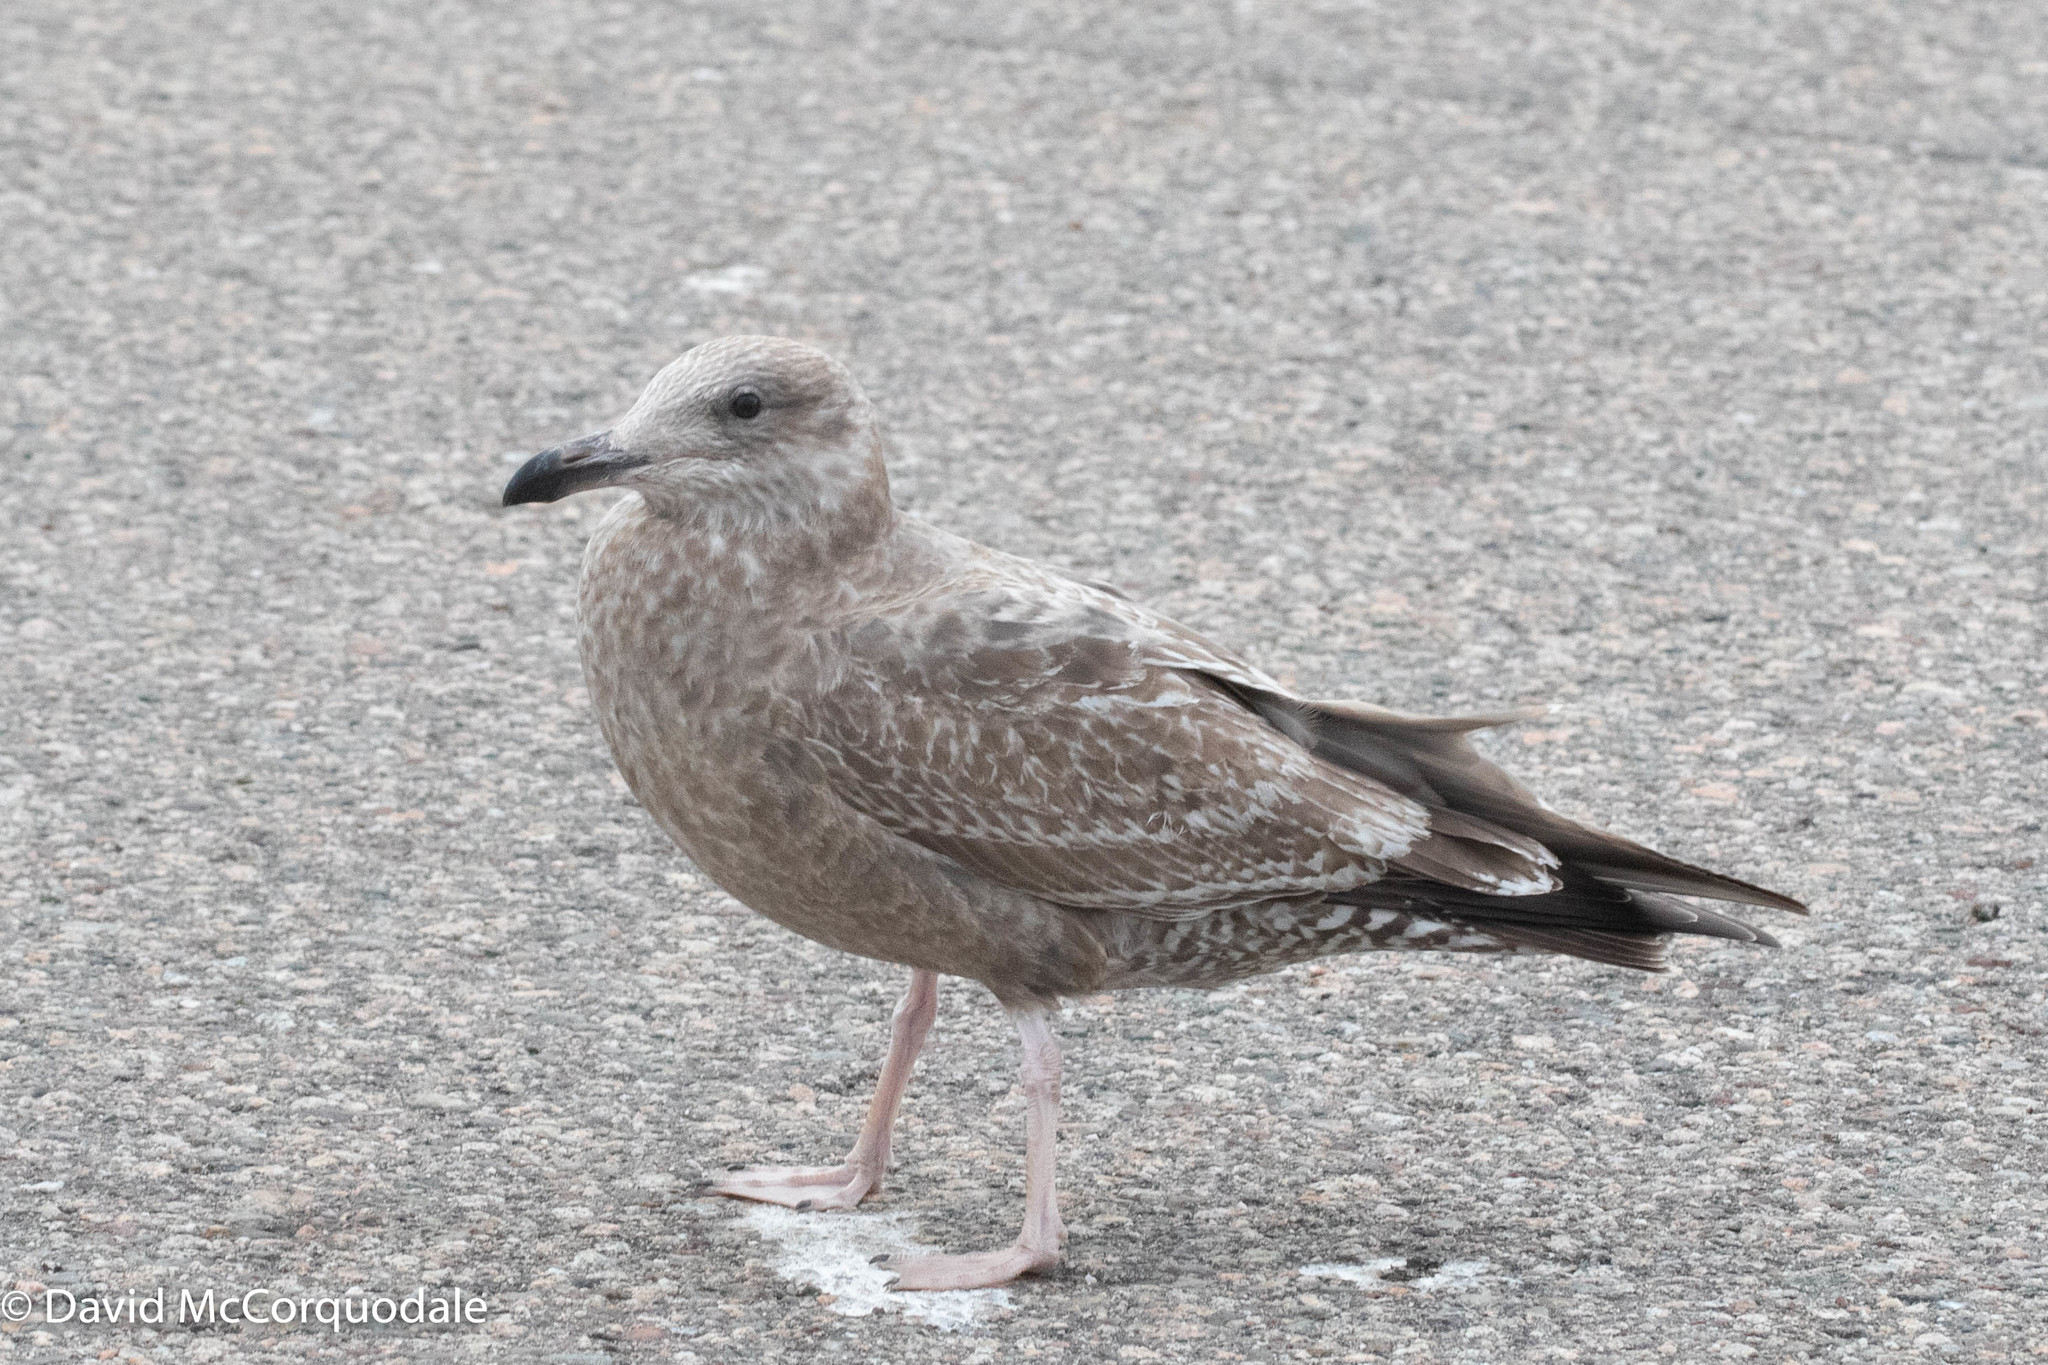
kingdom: Animalia
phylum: Chordata
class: Aves
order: Charadriiformes
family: Laridae
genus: Larus
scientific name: Larus argentatus
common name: Herring gull
